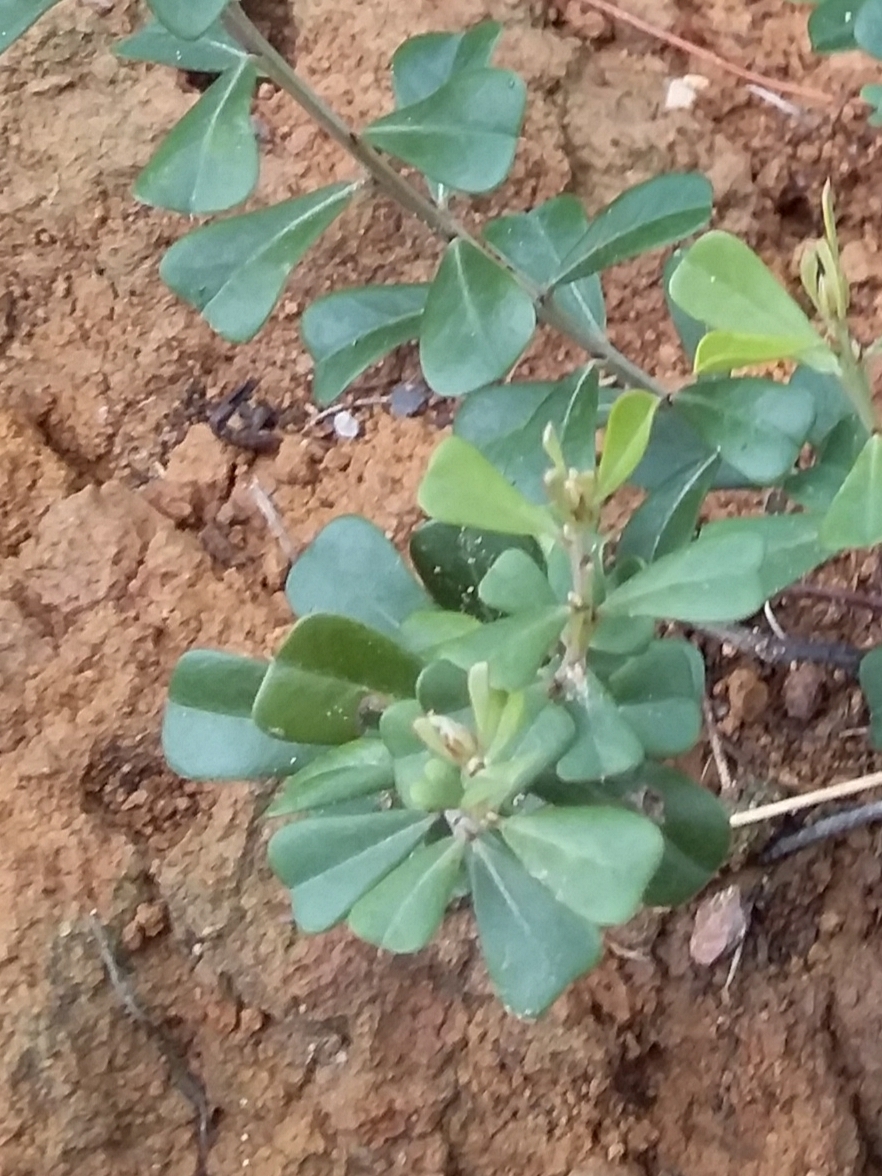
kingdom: Plantae
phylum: Tracheophyta
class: Magnoliopsida
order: Fabales
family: Fabaceae
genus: Pultenaea
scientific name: Pultenaea daphnoides
